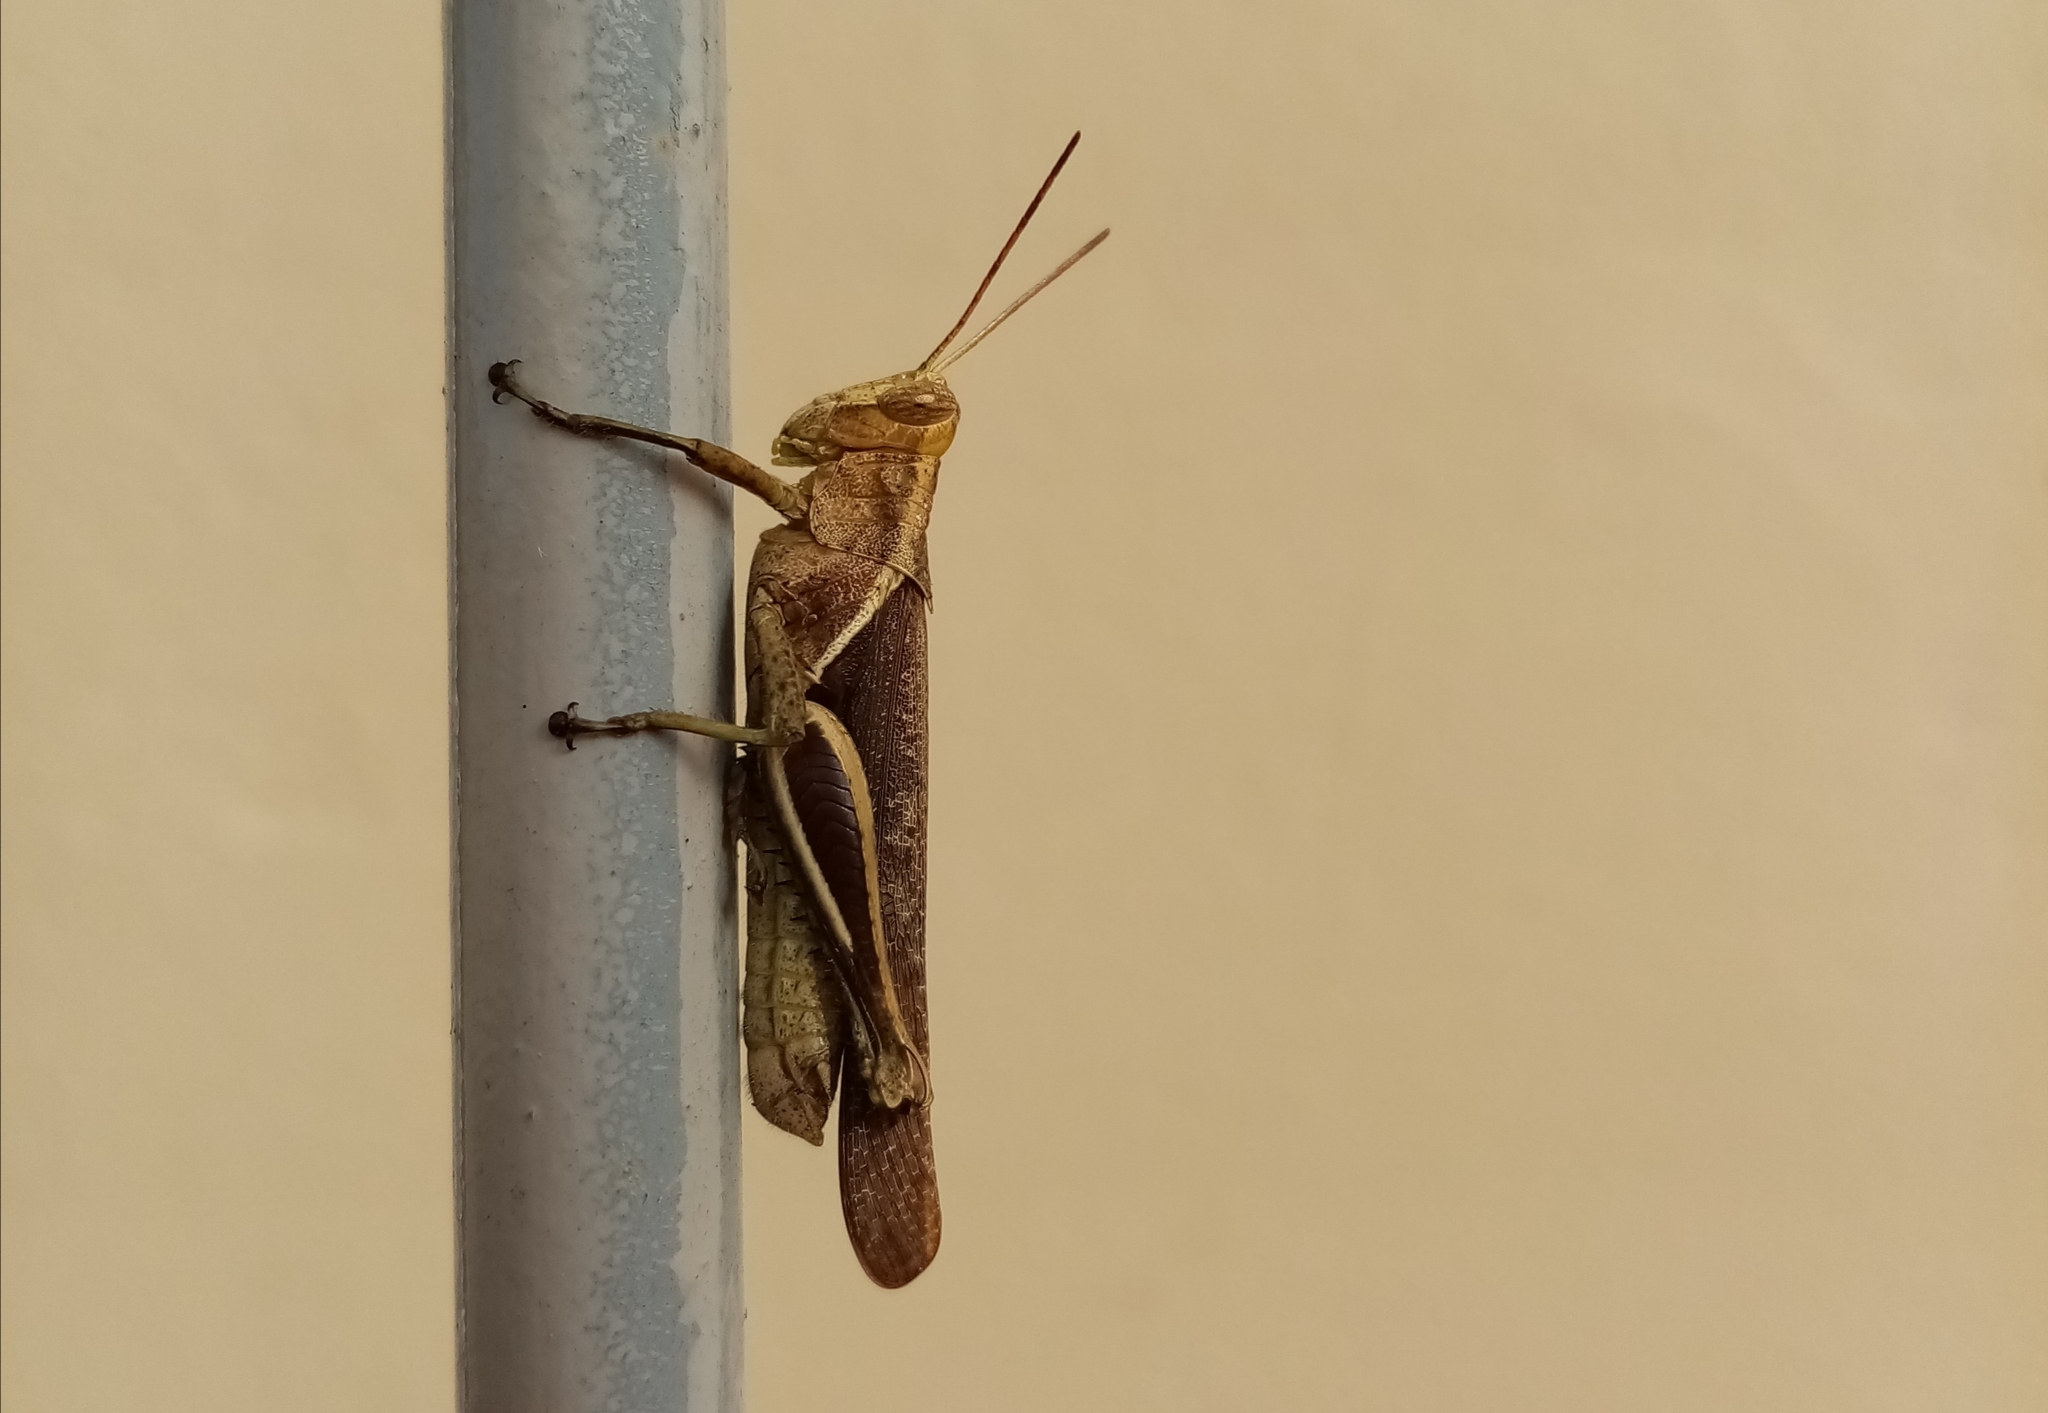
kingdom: Animalia
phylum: Arthropoda
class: Insecta
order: Orthoptera
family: Acrididae
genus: Abracris
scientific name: Abracris flavolineata
